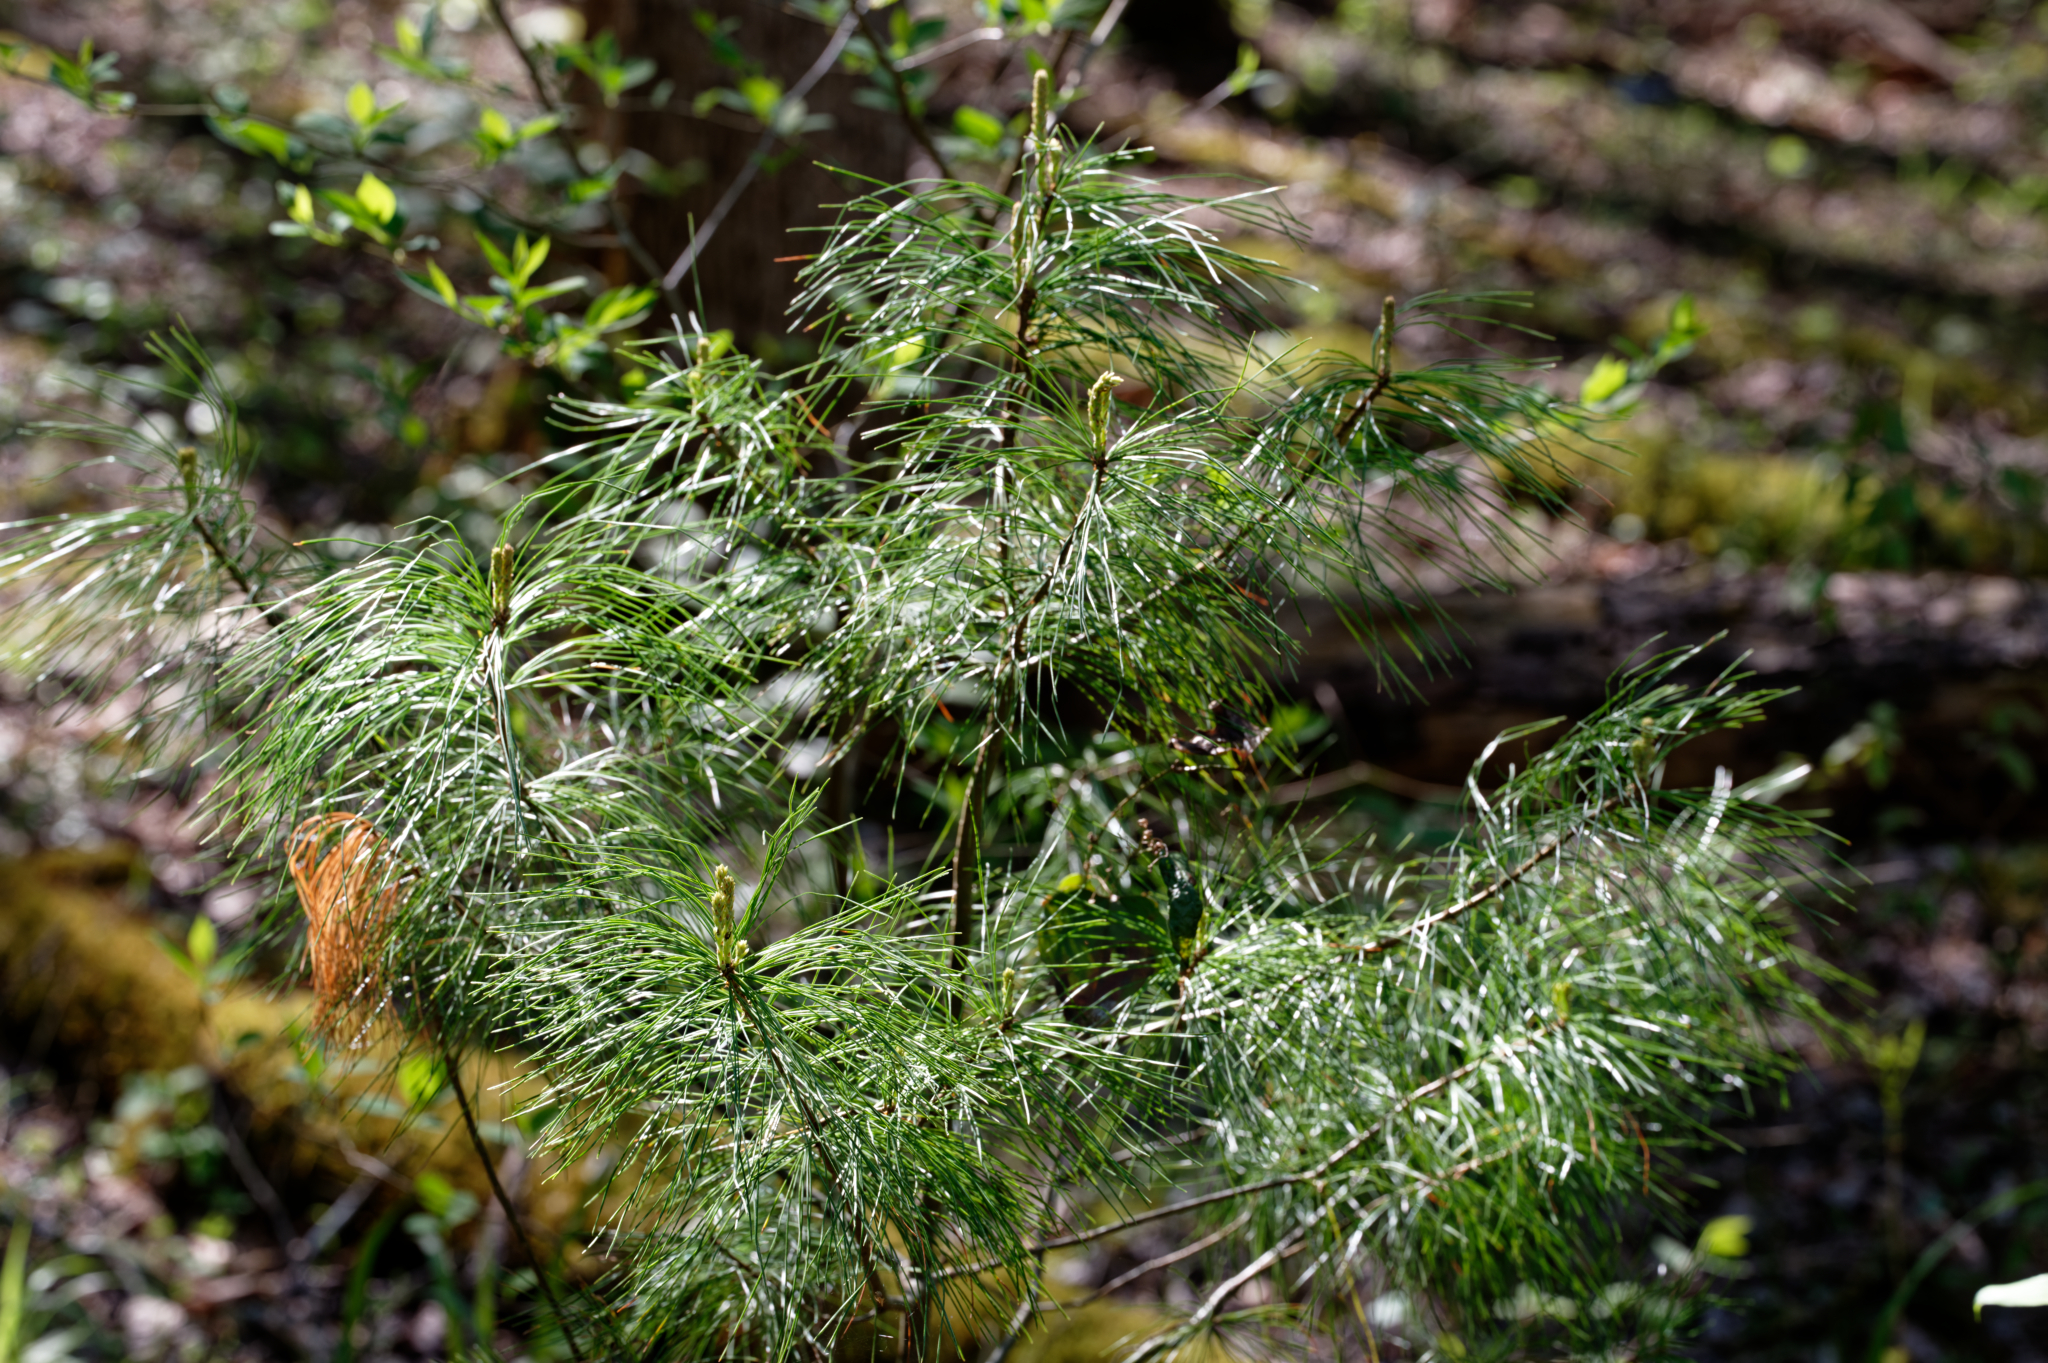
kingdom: Plantae
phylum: Tracheophyta
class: Pinopsida
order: Pinales
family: Pinaceae
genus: Pinus
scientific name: Pinus strobus
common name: Weymouth pine
